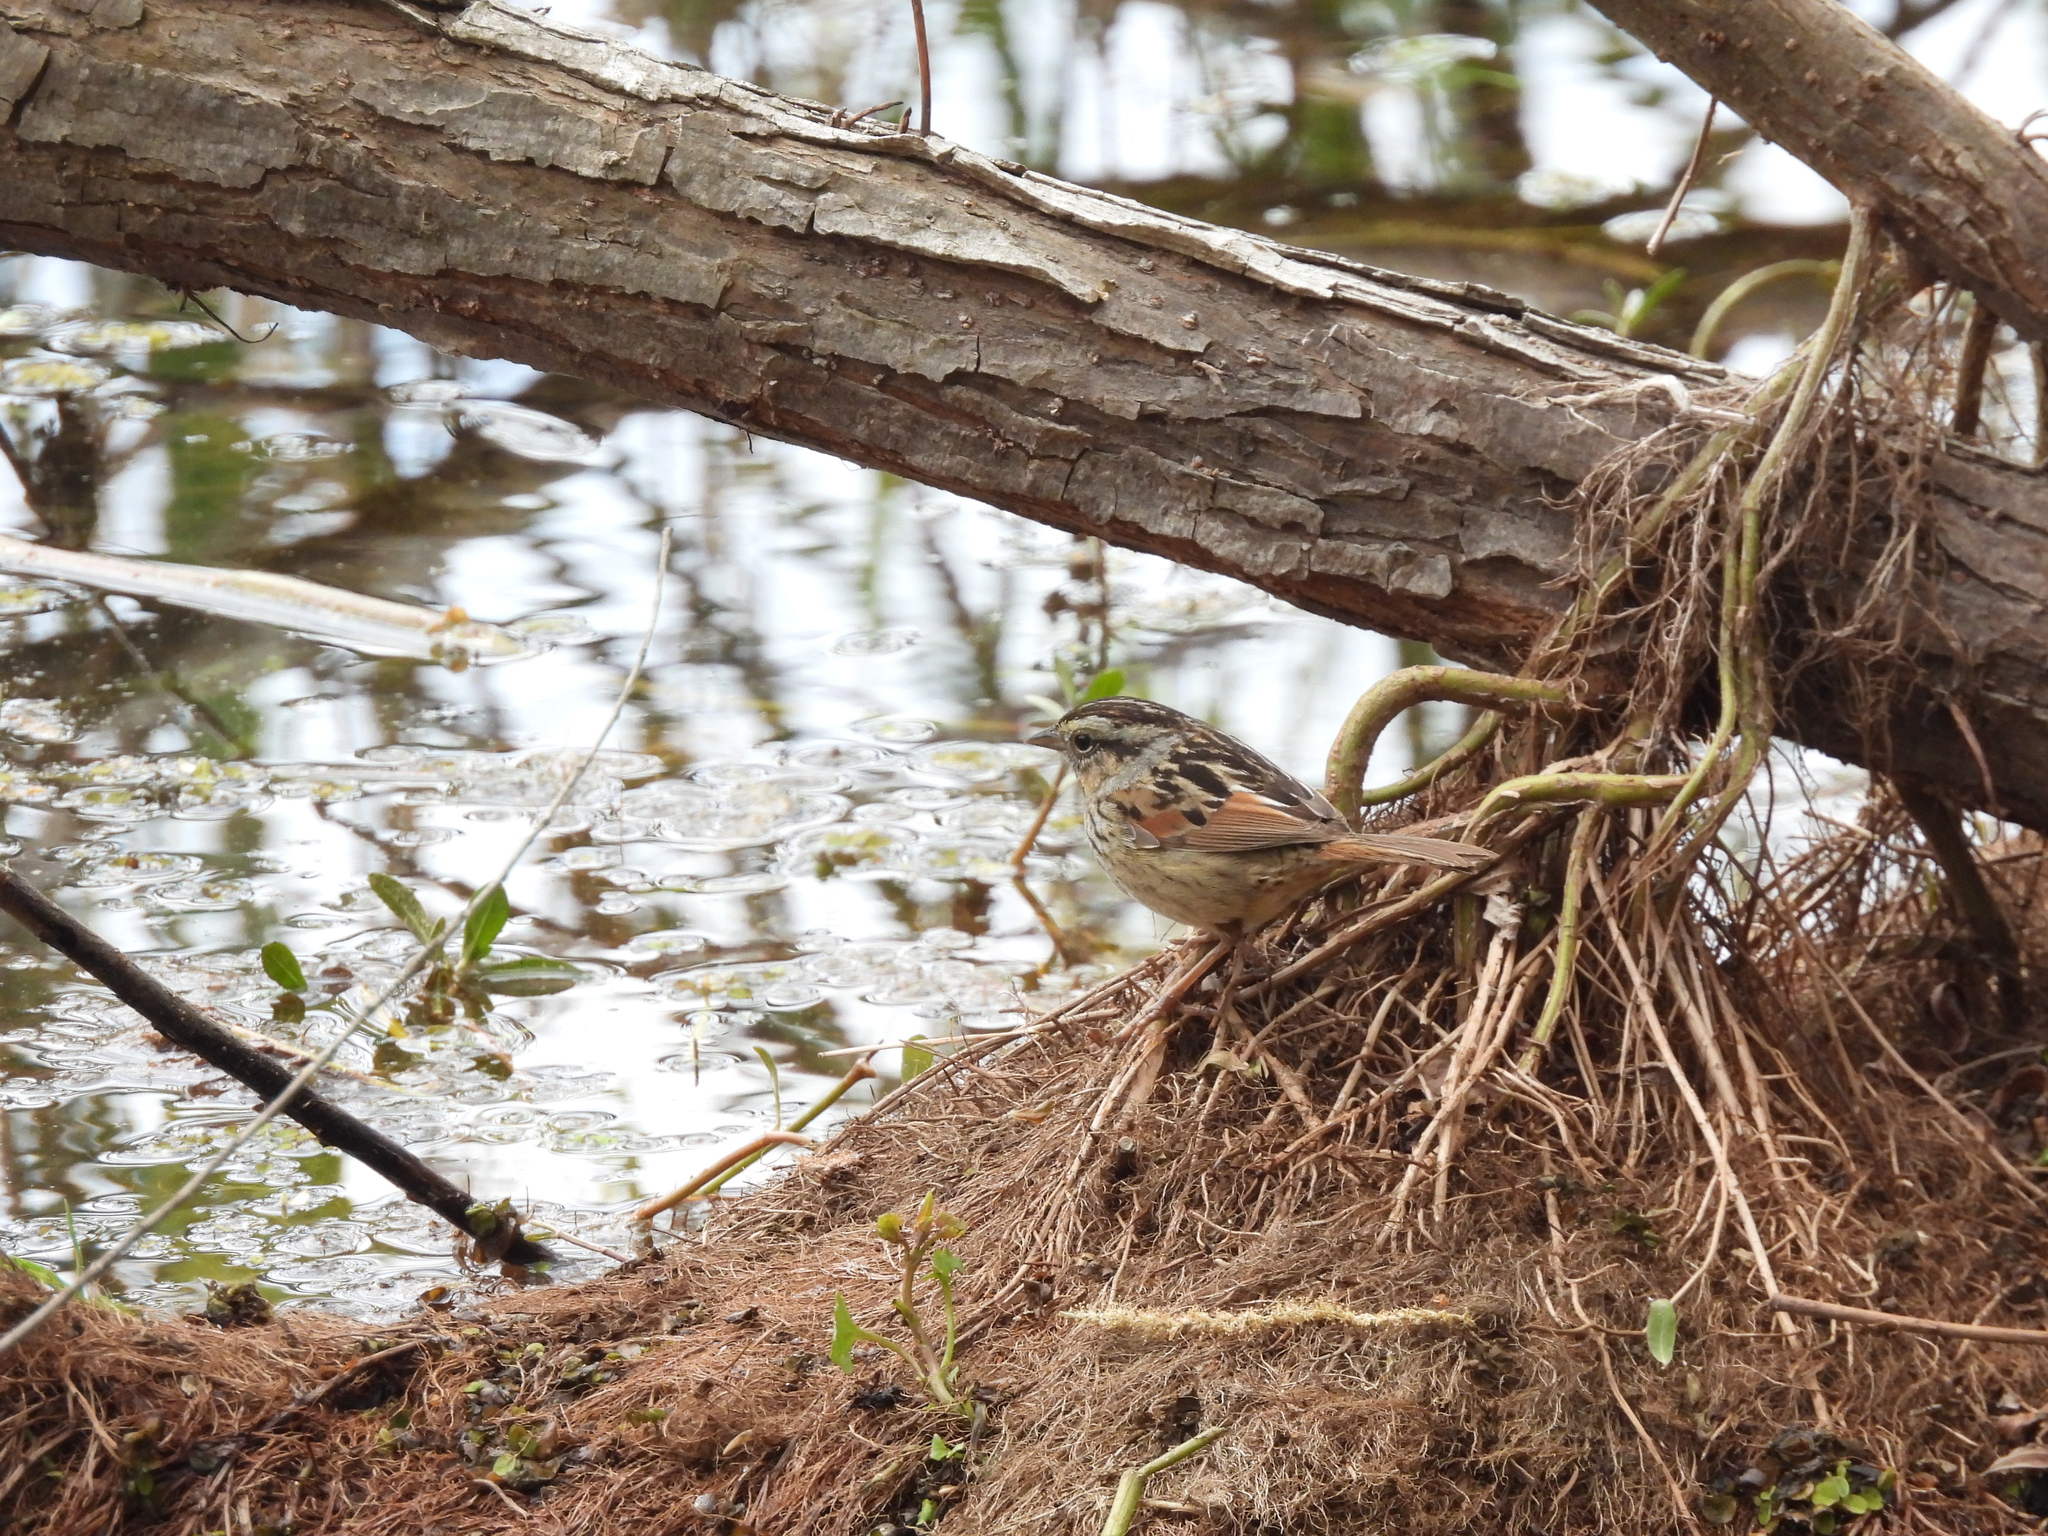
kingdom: Animalia
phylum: Chordata
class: Aves
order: Passeriformes
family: Passerellidae
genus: Melospiza
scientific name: Melospiza georgiana
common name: Swamp sparrow
